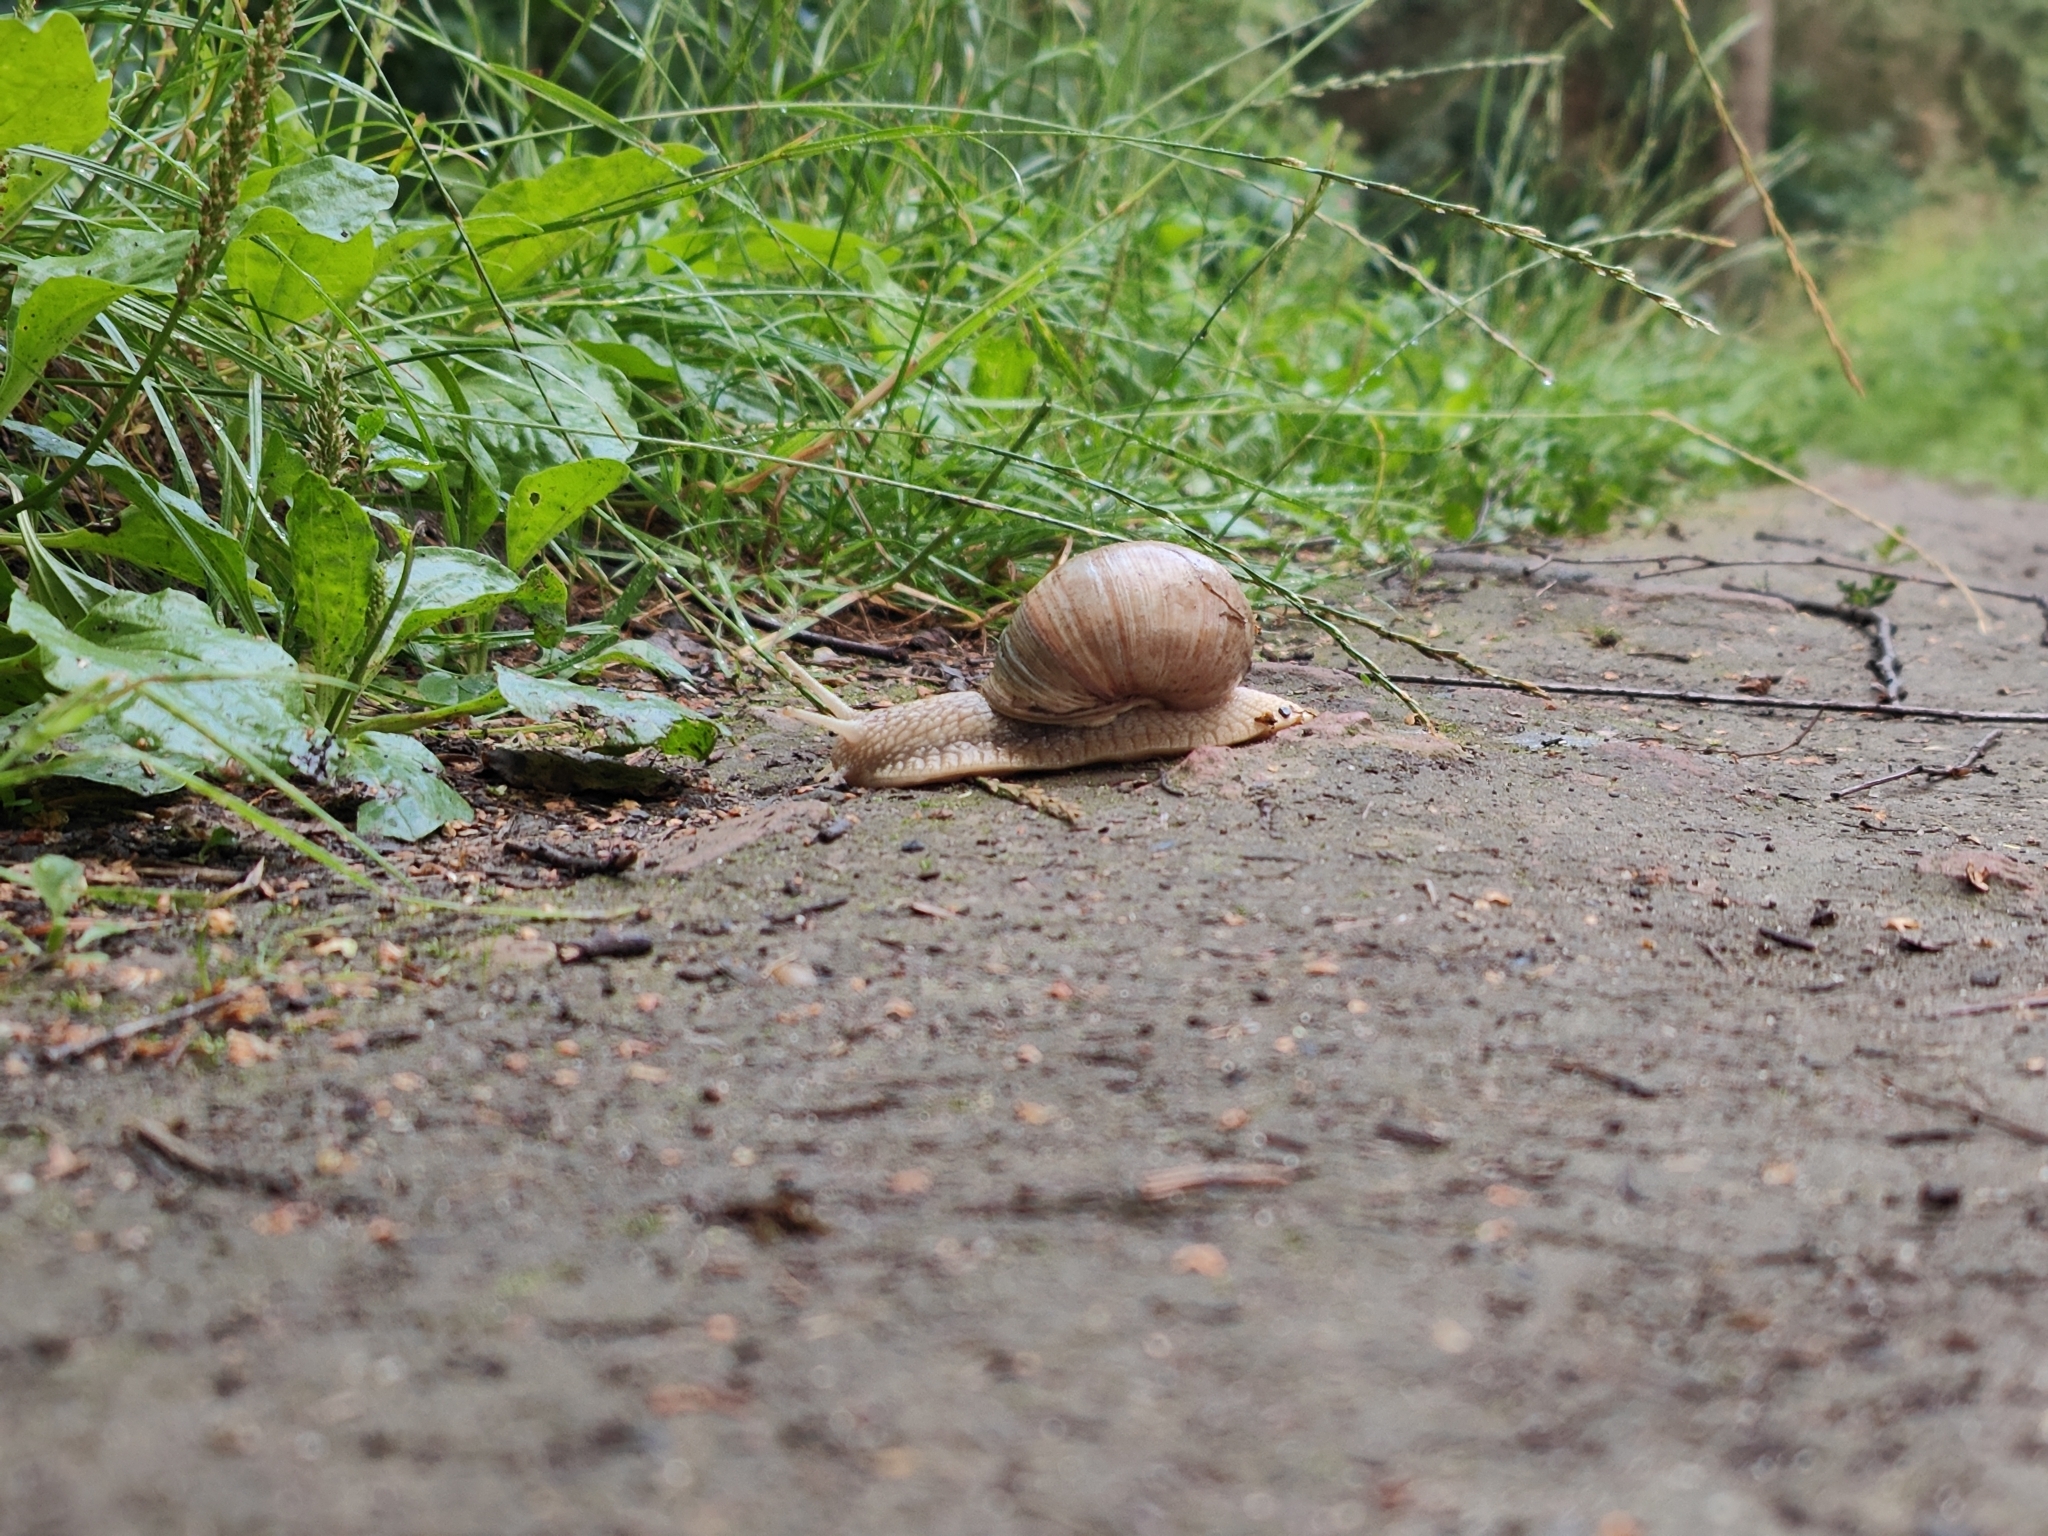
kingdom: Animalia
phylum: Mollusca
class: Gastropoda
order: Stylommatophora
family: Helicidae
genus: Helix
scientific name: Helix pomatia
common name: Roman snail
